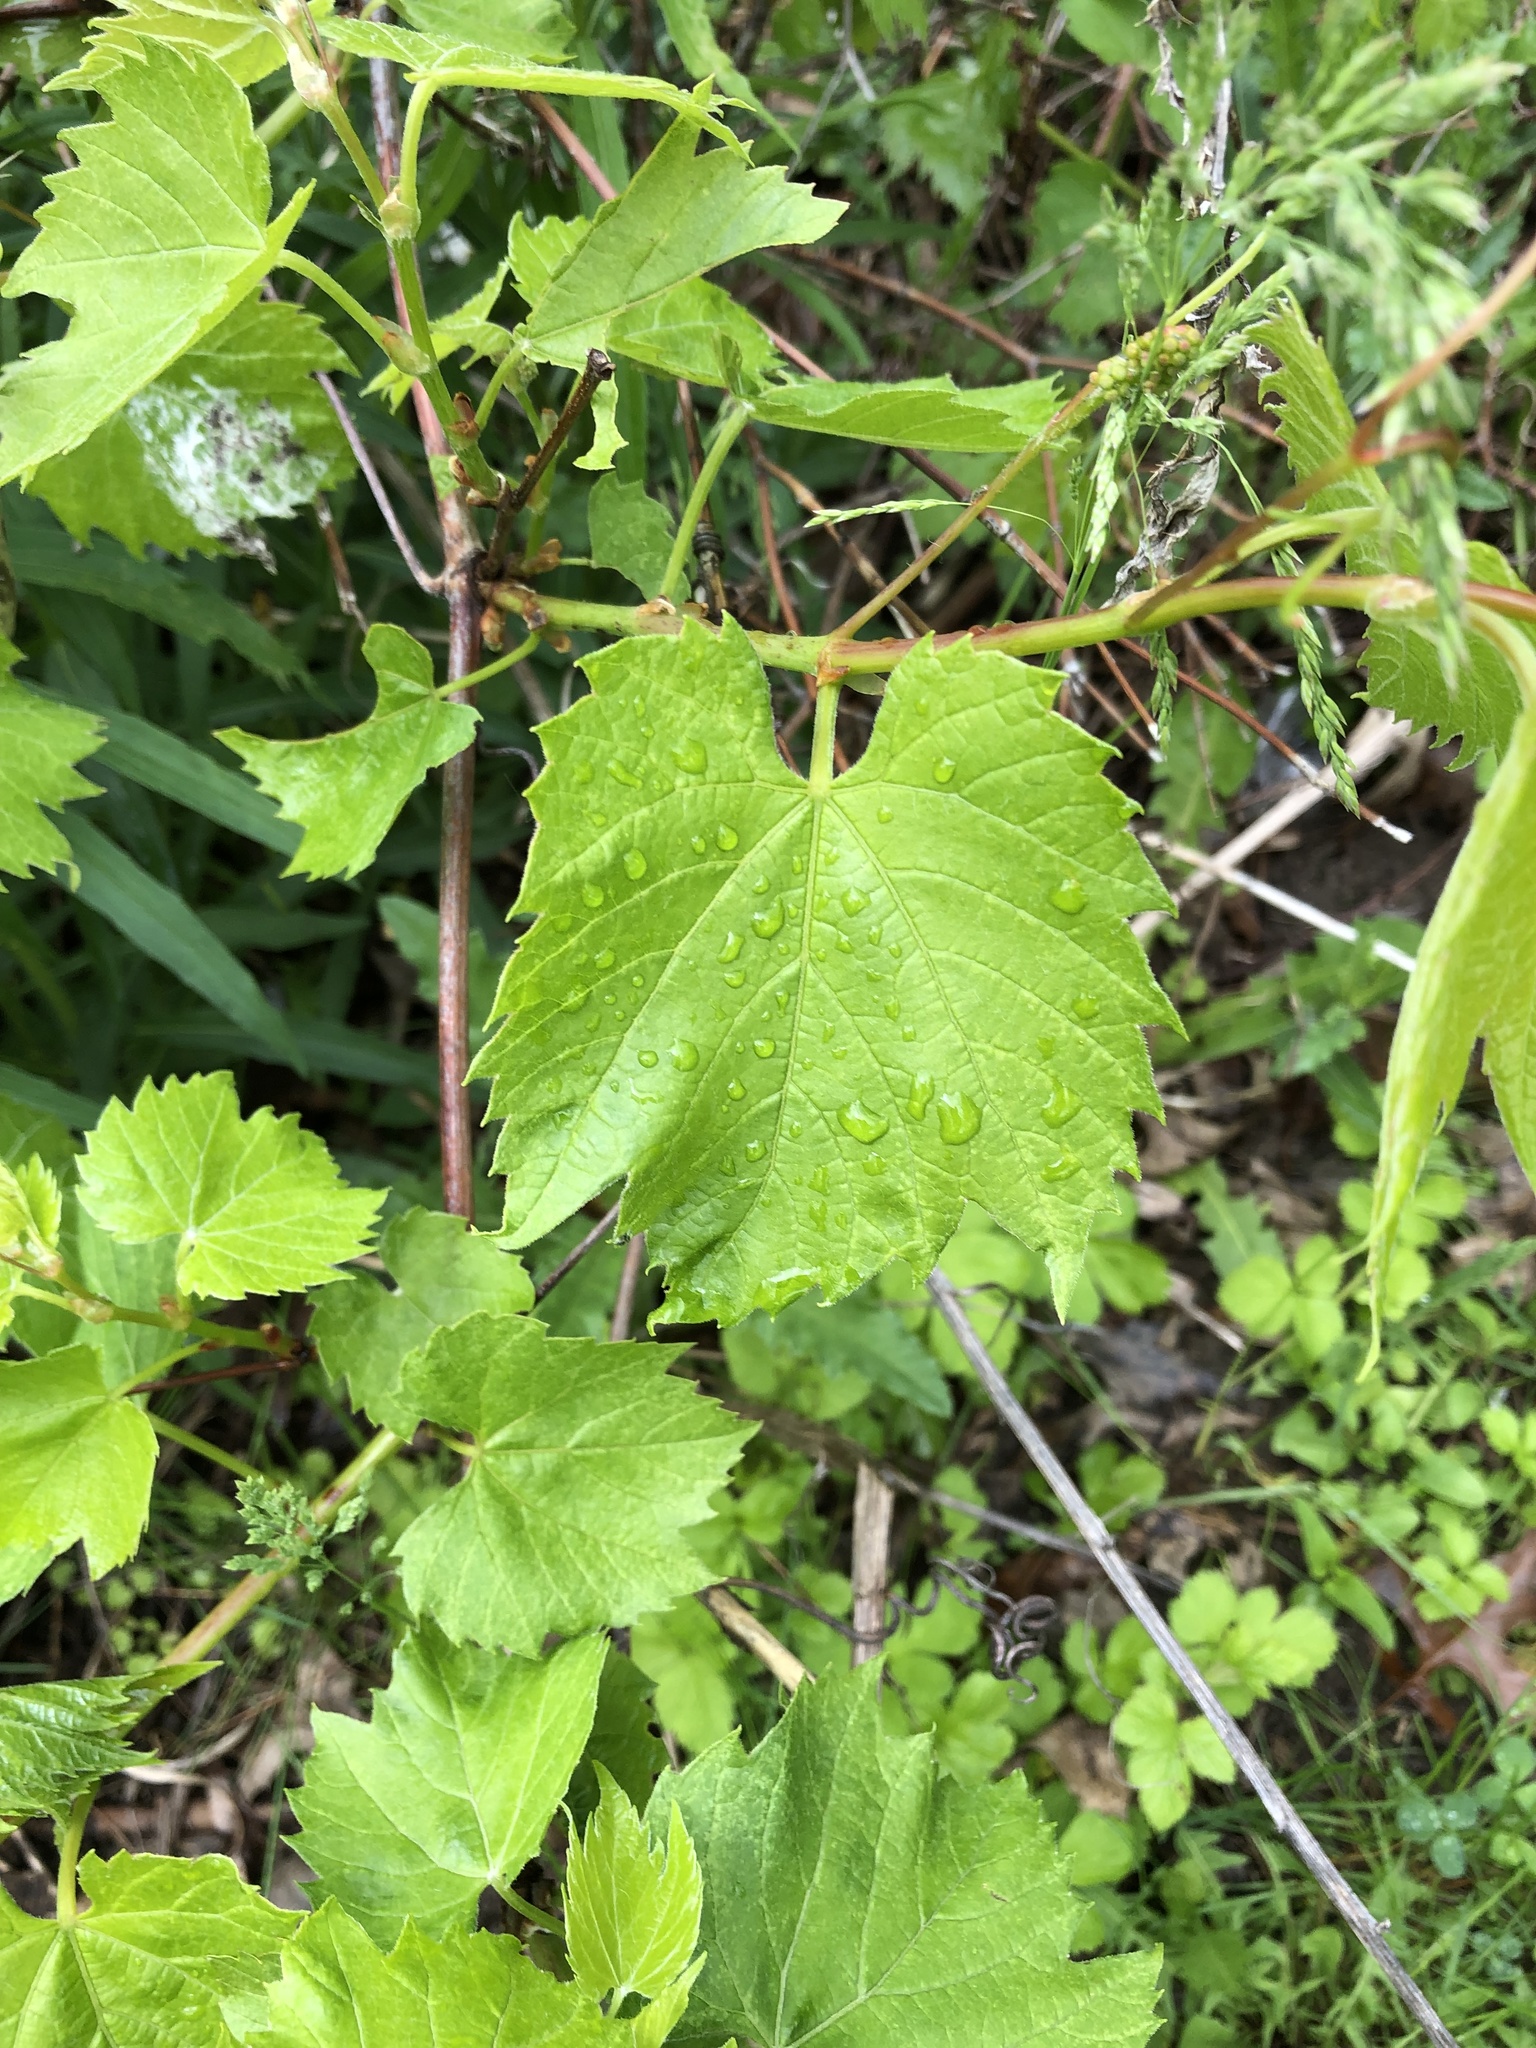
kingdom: Plantae
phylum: Tracheophyta
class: Magnoliopsida
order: Vitales
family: Vitaceae
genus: Vitis
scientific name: Vitis riparia
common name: Frost grape
